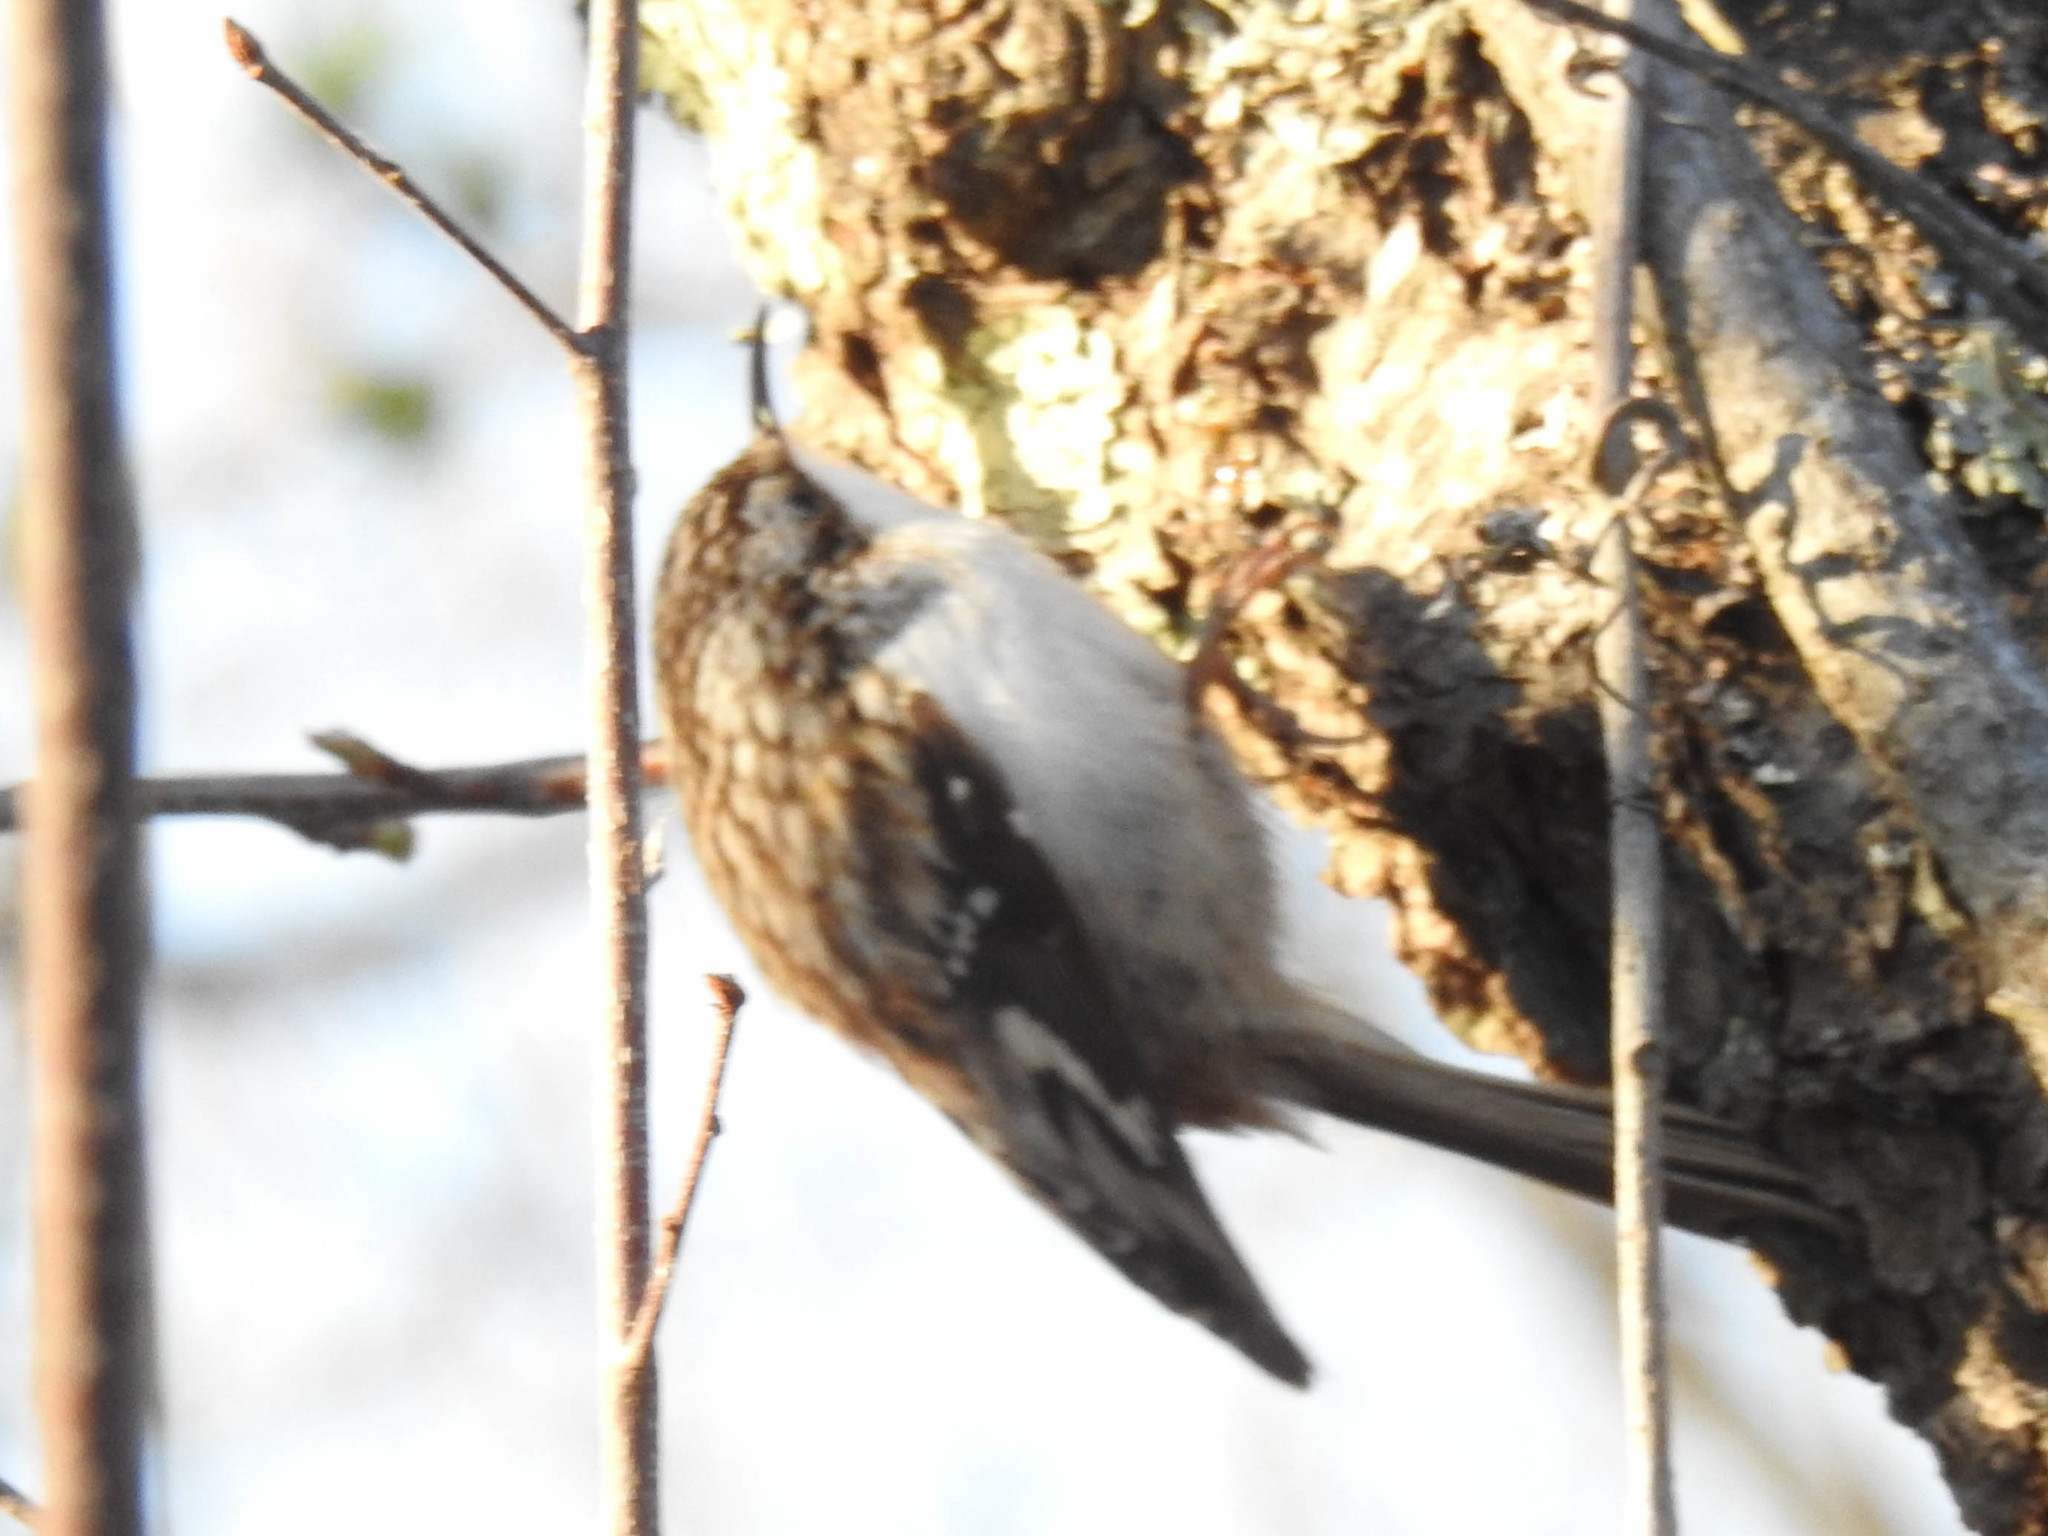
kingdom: Animalia
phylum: Chordata
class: Aves
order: Passeriformes
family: Certhiidae
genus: Certhia
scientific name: Certhia americana
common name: Brown creeper
